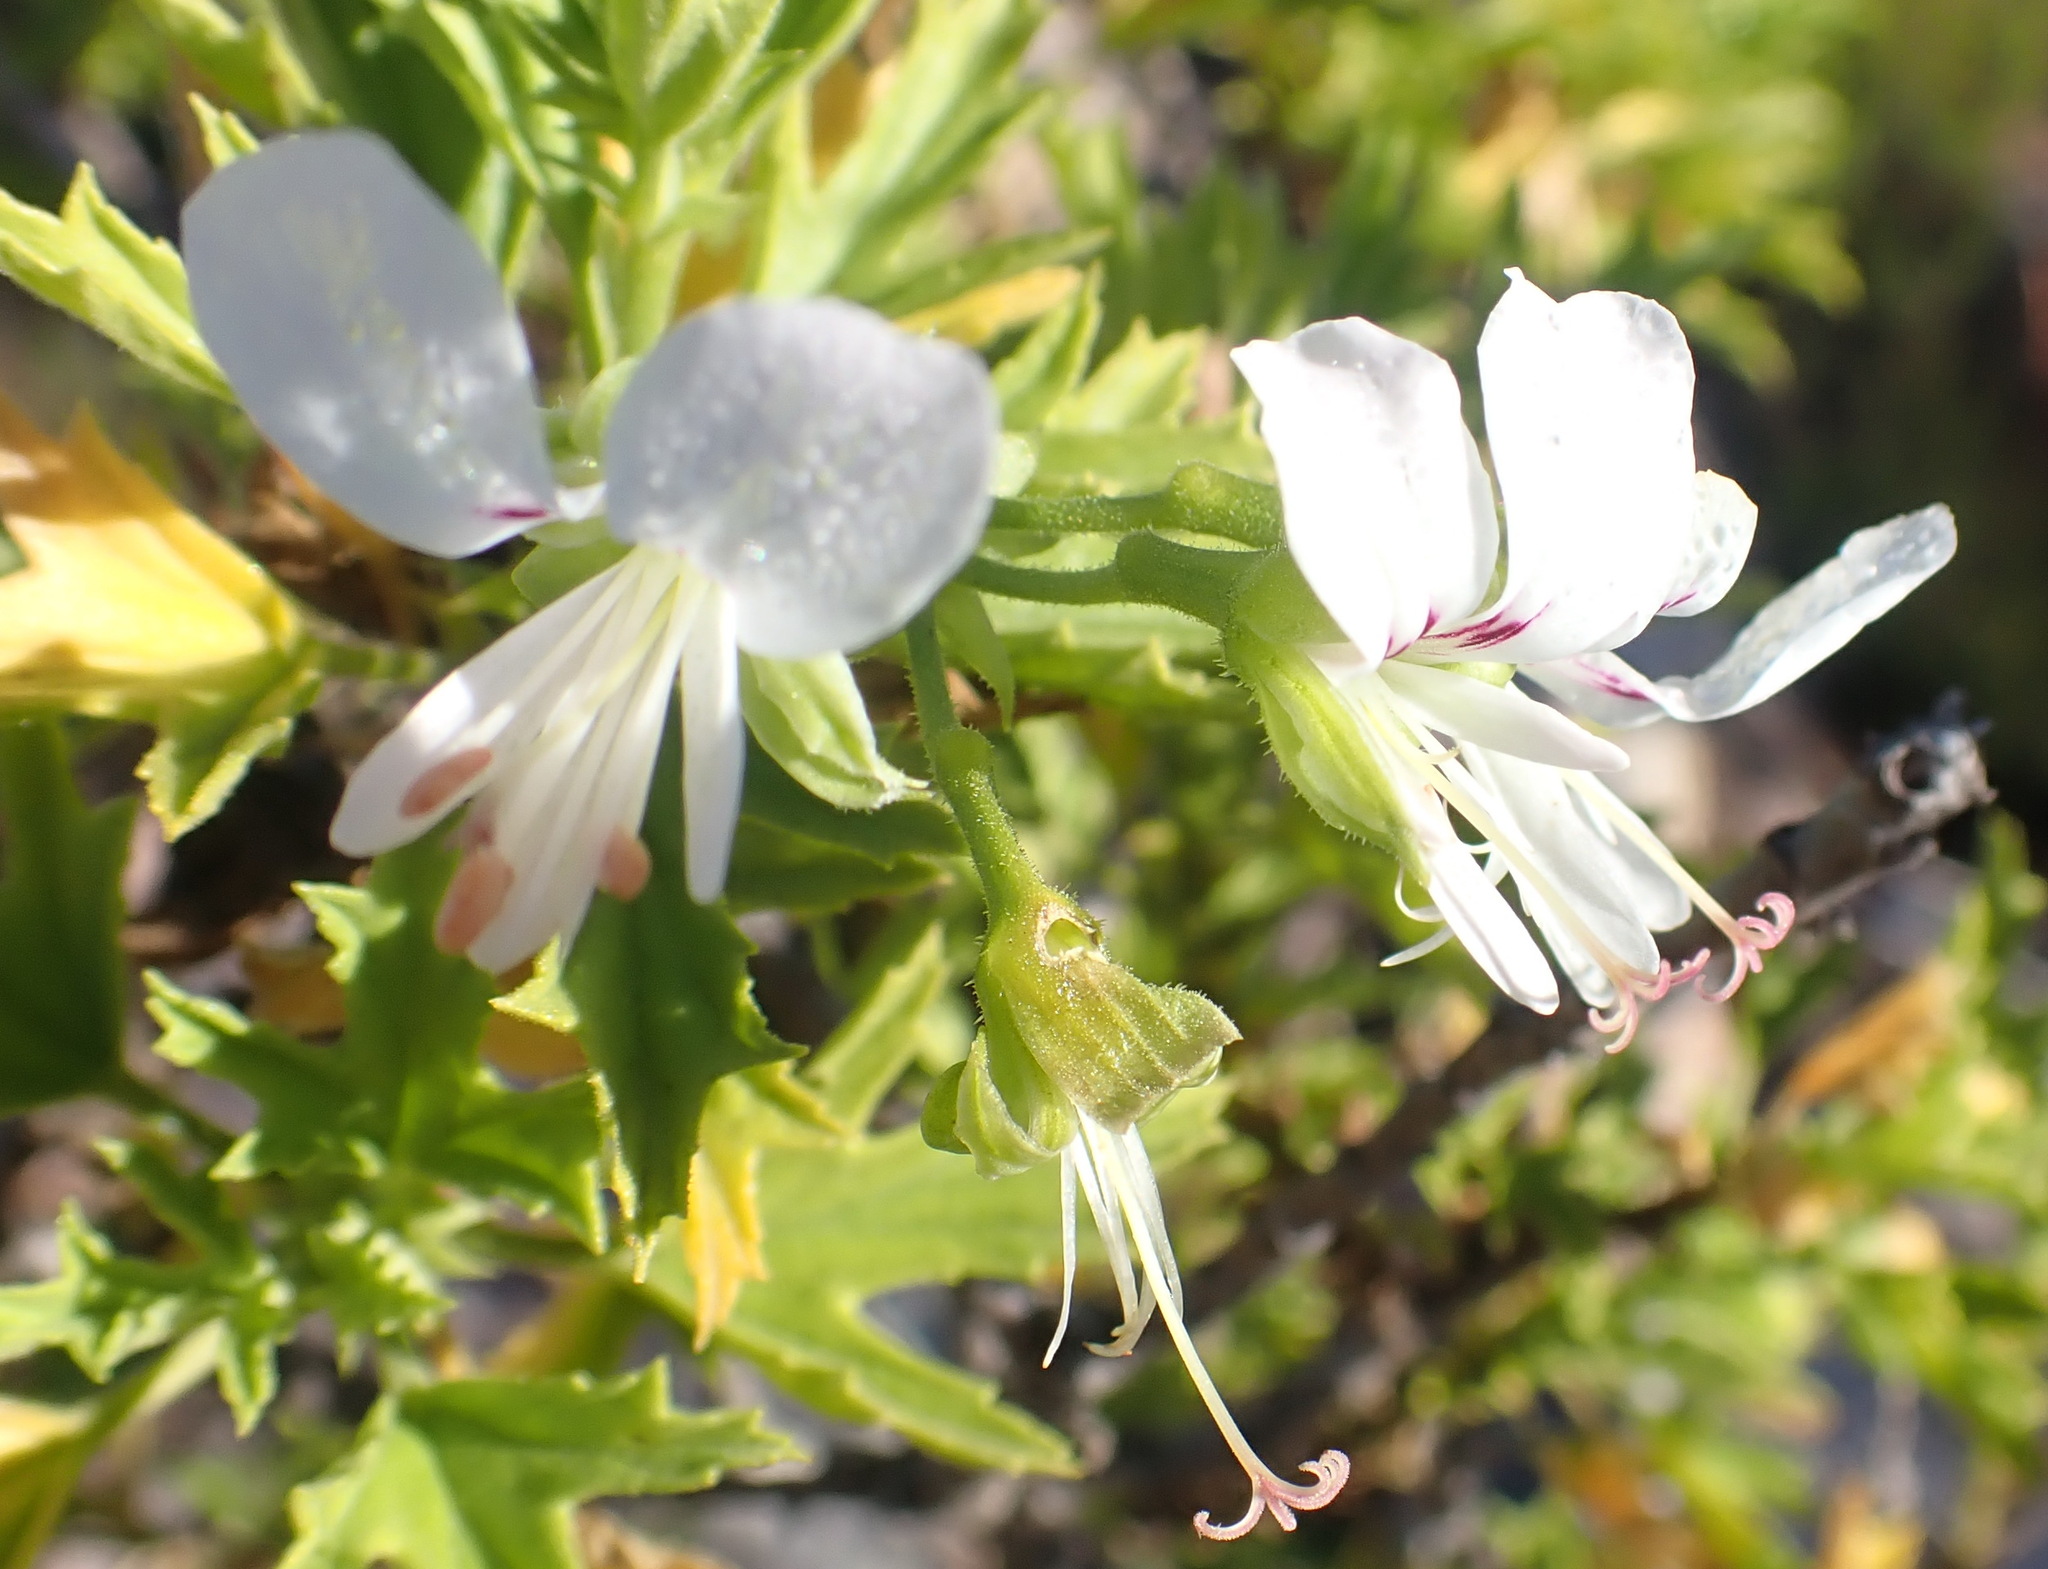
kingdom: Plantae
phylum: Tracheophyta
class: Magnoliopsida
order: Geraniales
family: Geraniaceae
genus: Pelargonium
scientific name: Pelargonium scabrum
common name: Apricot geranium
